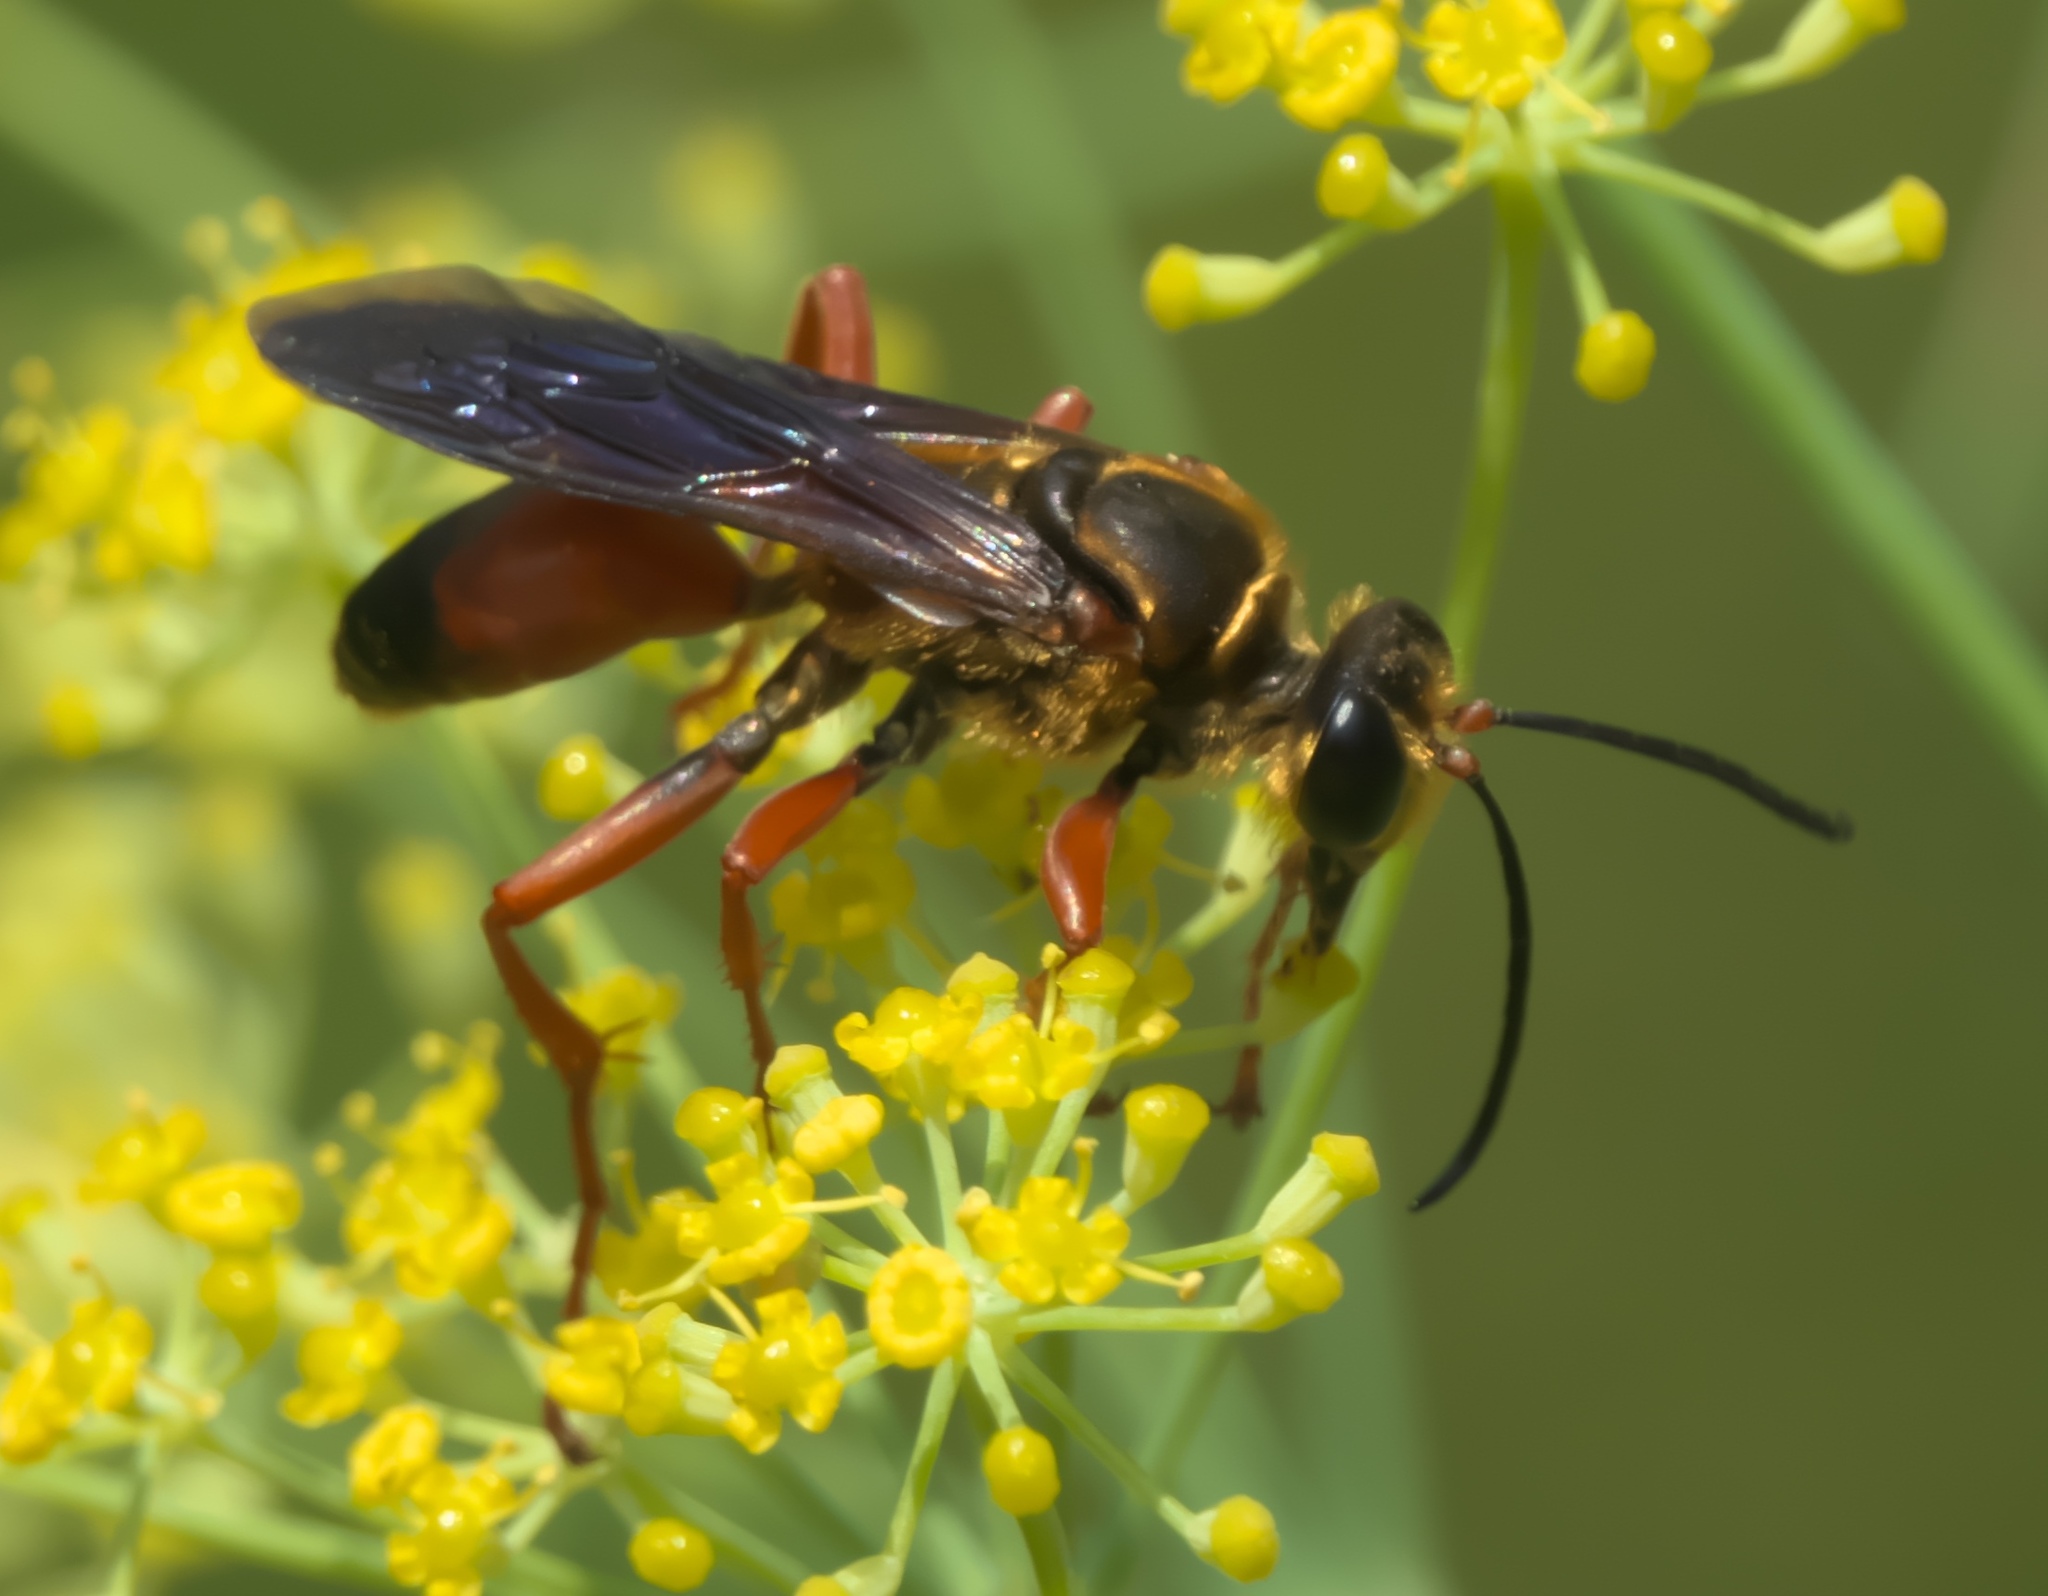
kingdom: Animalia
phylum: Arthropoda
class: Insecta
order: Hymenoptera
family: Sphecidae
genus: Sphex
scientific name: Sphex ichneumoneus
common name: Great golden digger wasp
